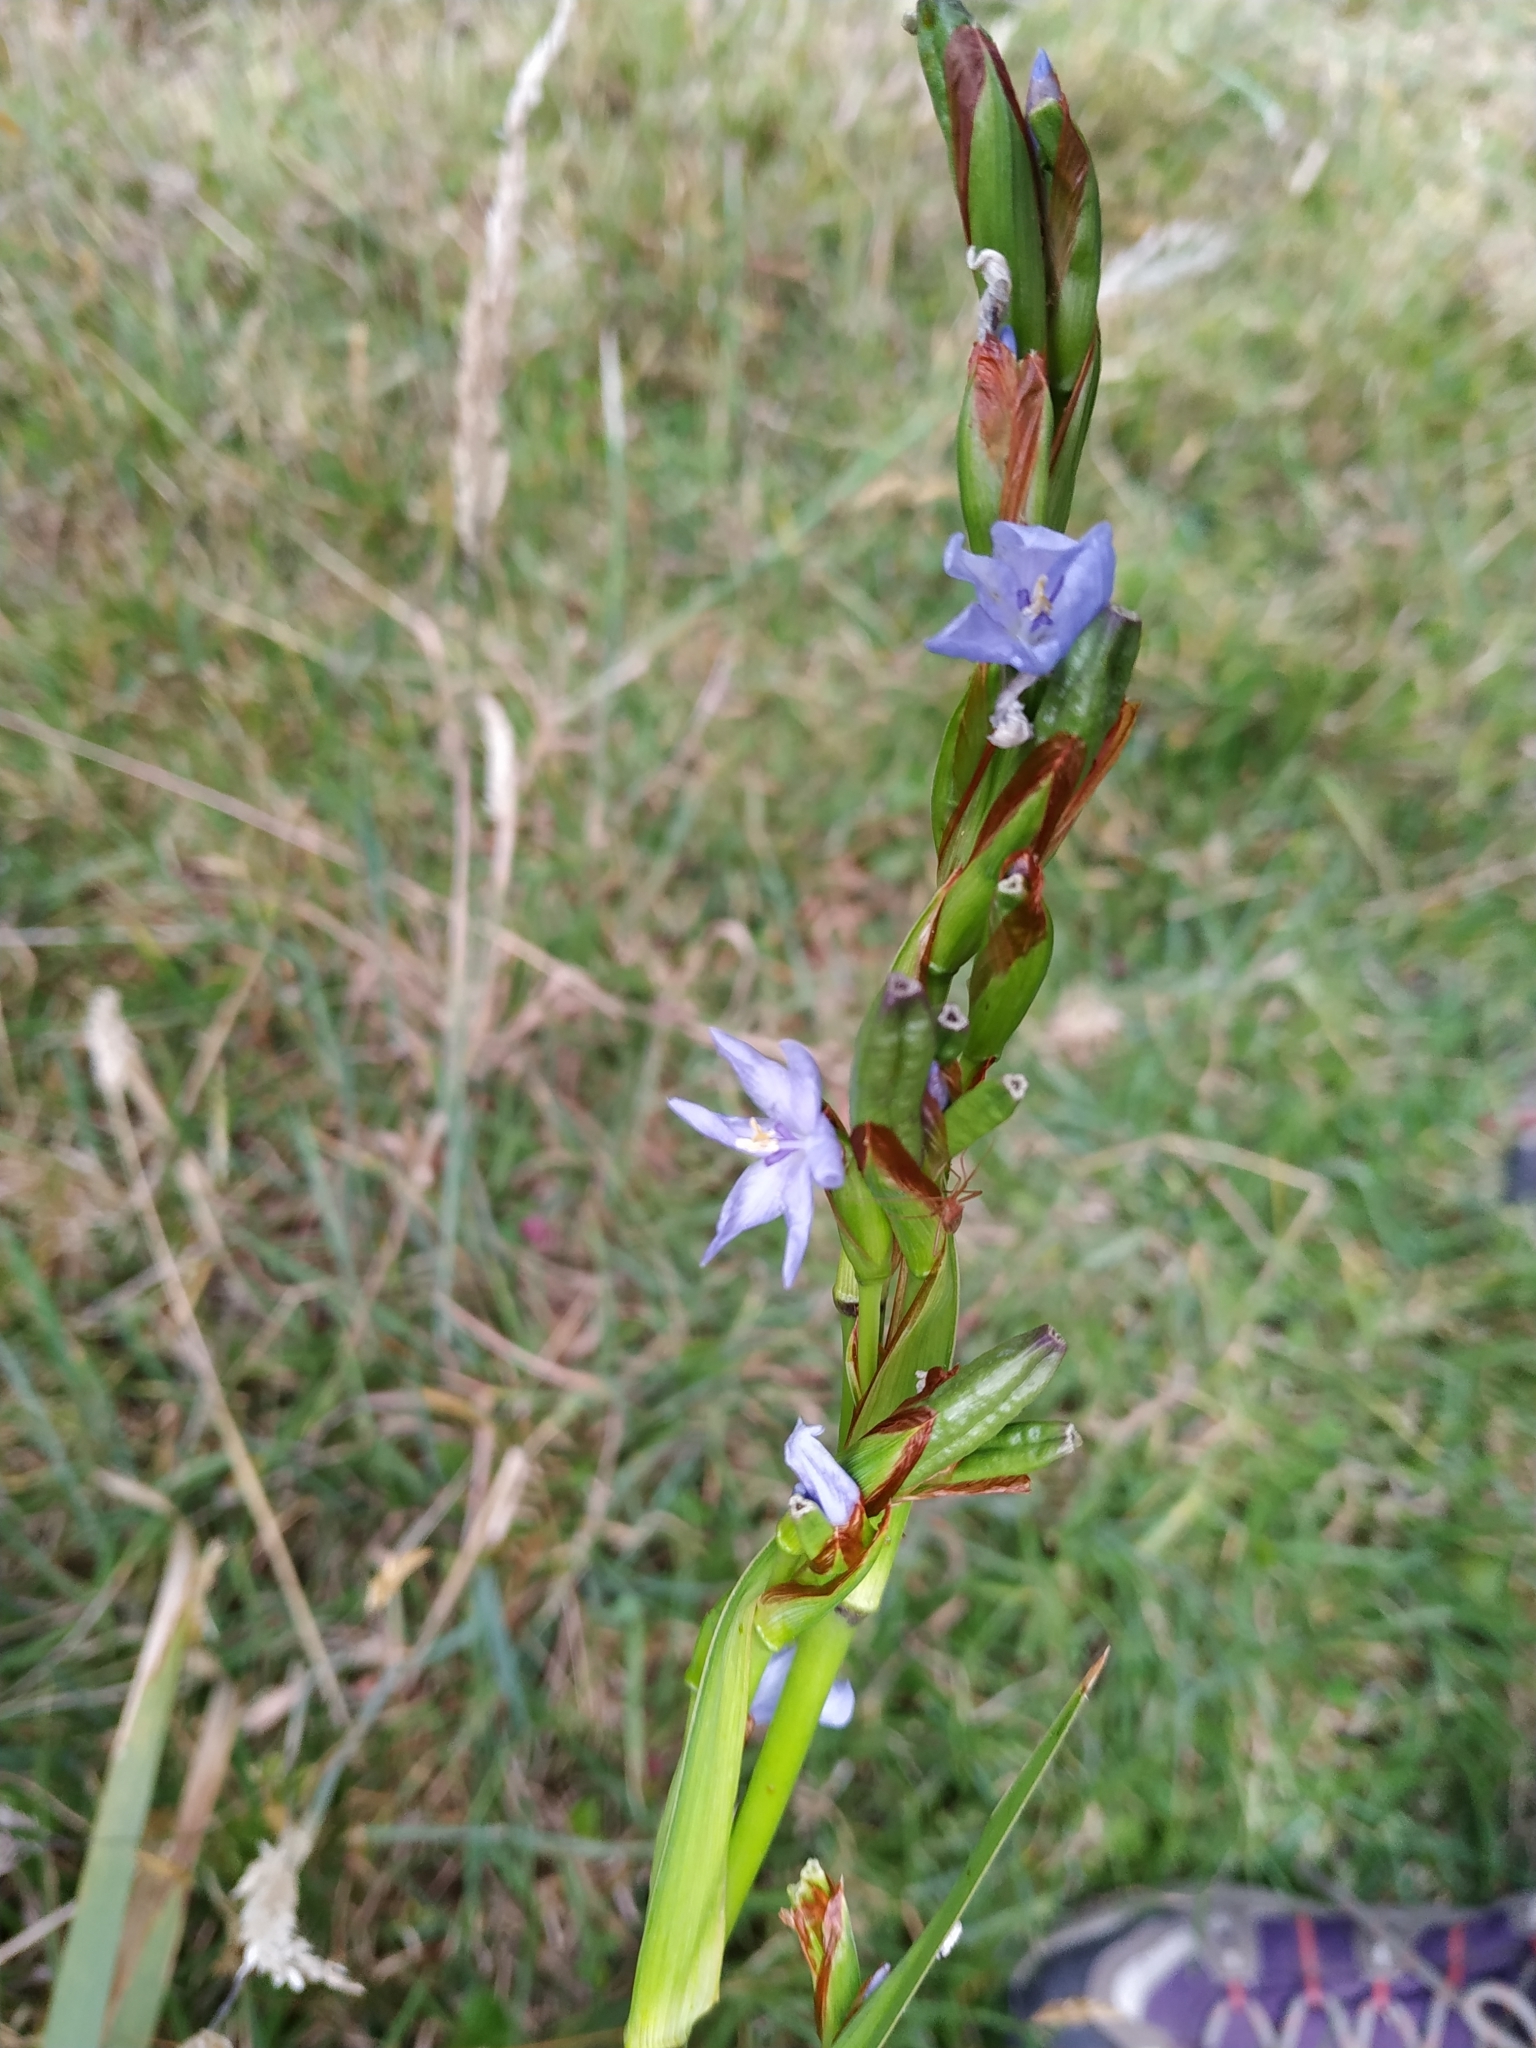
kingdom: Plantae
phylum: Tracheophyta
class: Liliopsida
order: Asparagales
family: Iridaceae
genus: Orthrosanthus
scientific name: Orthrosanthus chimboracensis
